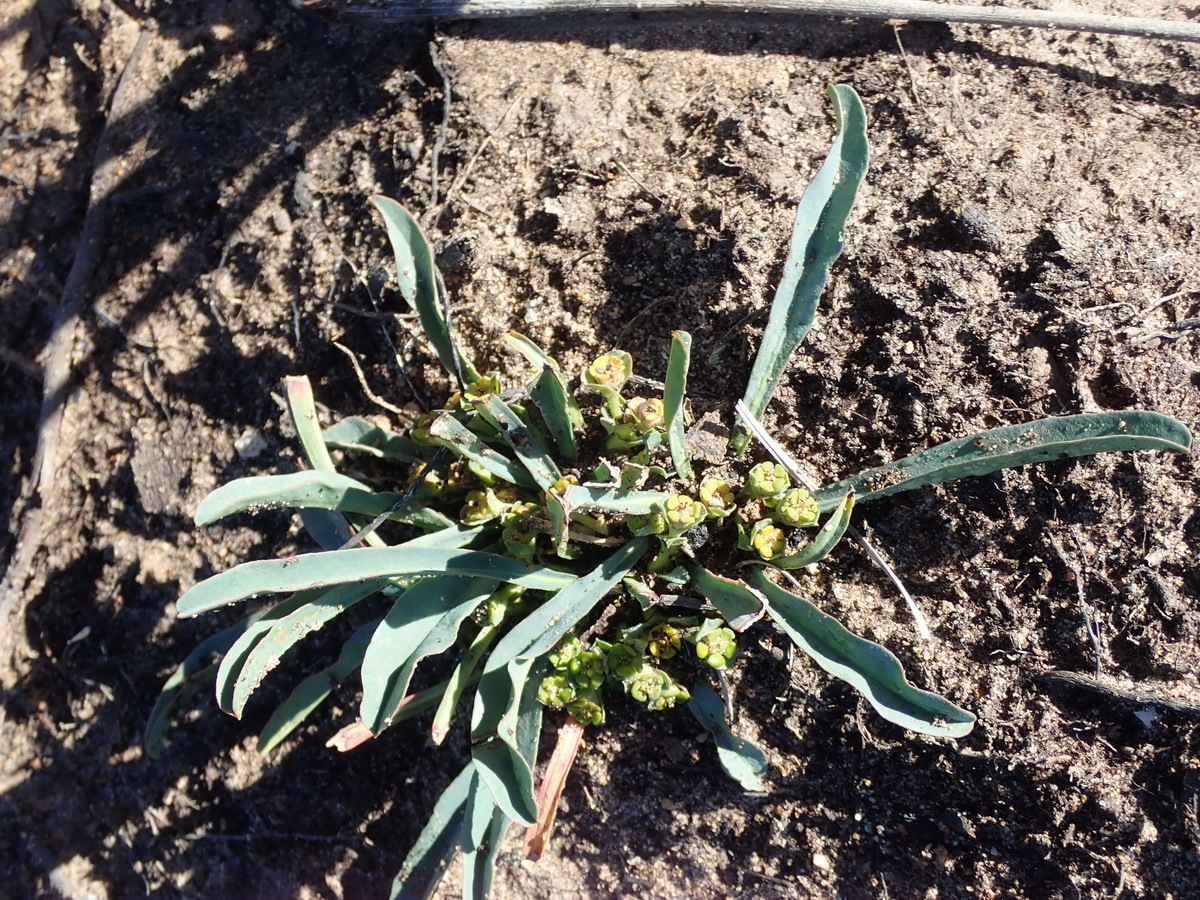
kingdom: Plantae
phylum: Tracheophyta
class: Magnoliopsida
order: Malpighiales
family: Euphorbiaceae
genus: Euphorbia
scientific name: Euphorbia silenifolia
